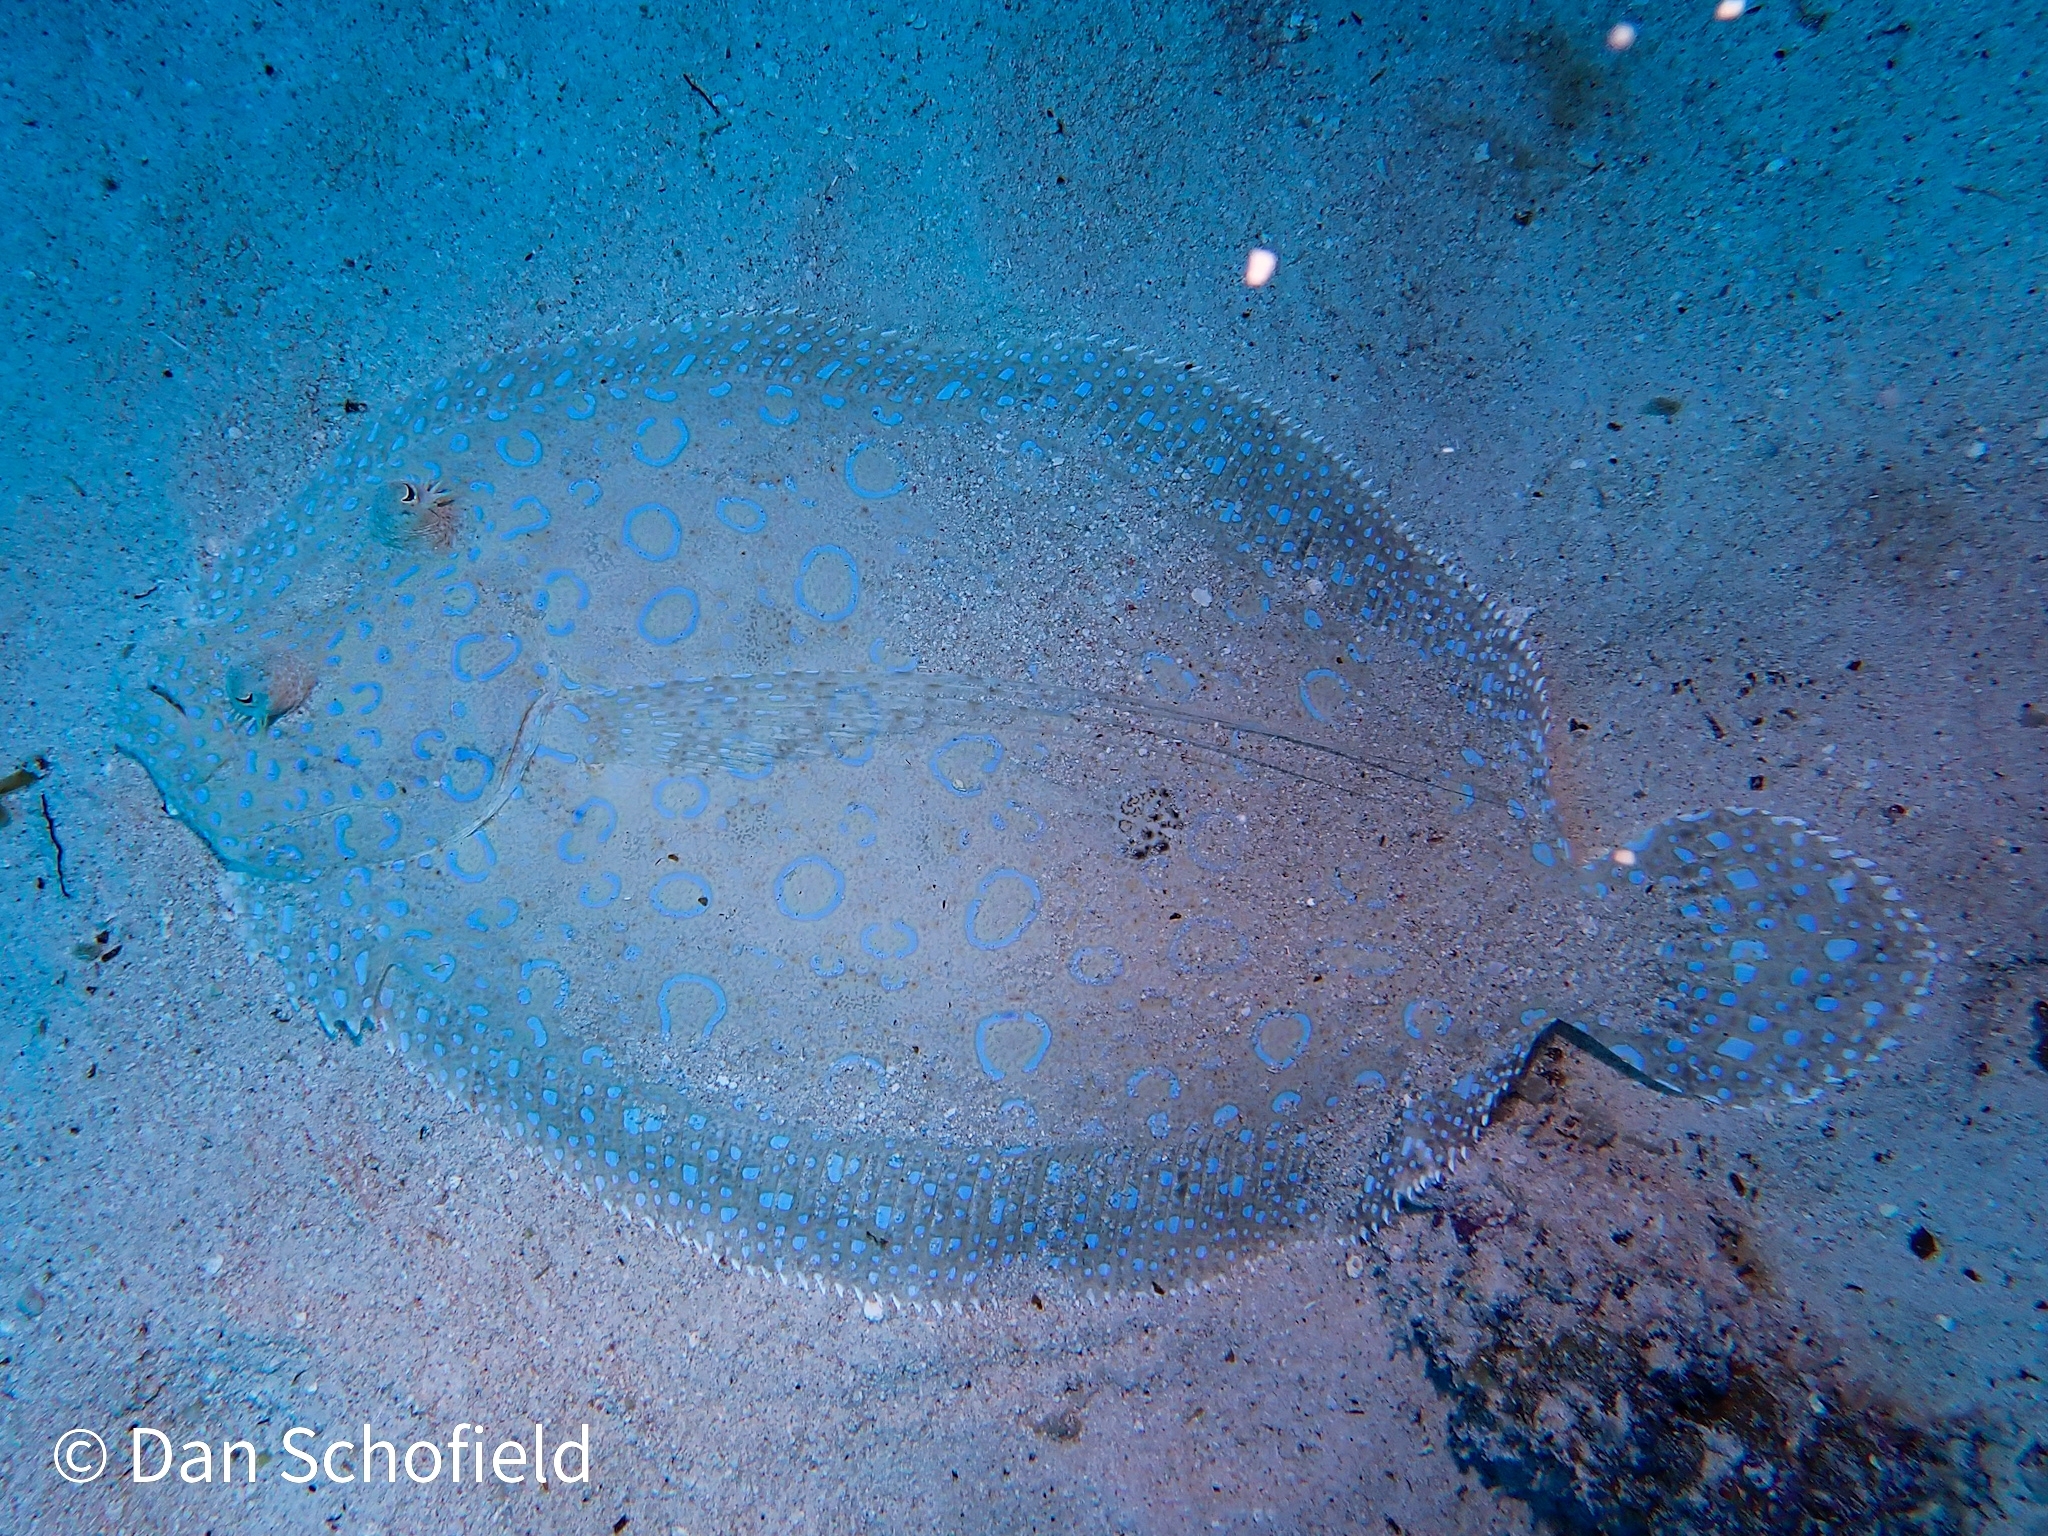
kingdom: Animalia
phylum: Chordata
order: Pleuronectiformes
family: Bothidae
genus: Bothus
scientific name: Bothus lunatus
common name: Peacock flounder
